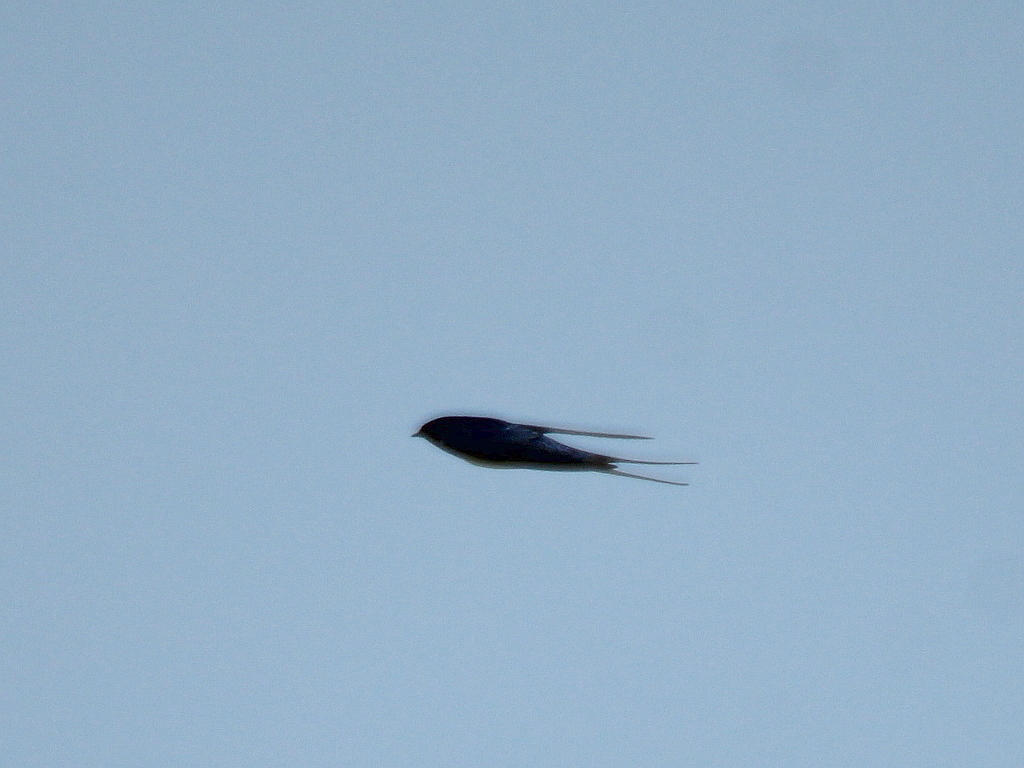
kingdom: Animalia
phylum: Chordata
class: Aves
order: Passeriformes
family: Hirundinidae
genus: Hirundo
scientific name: Hirundo rustica
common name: Barn swallow
